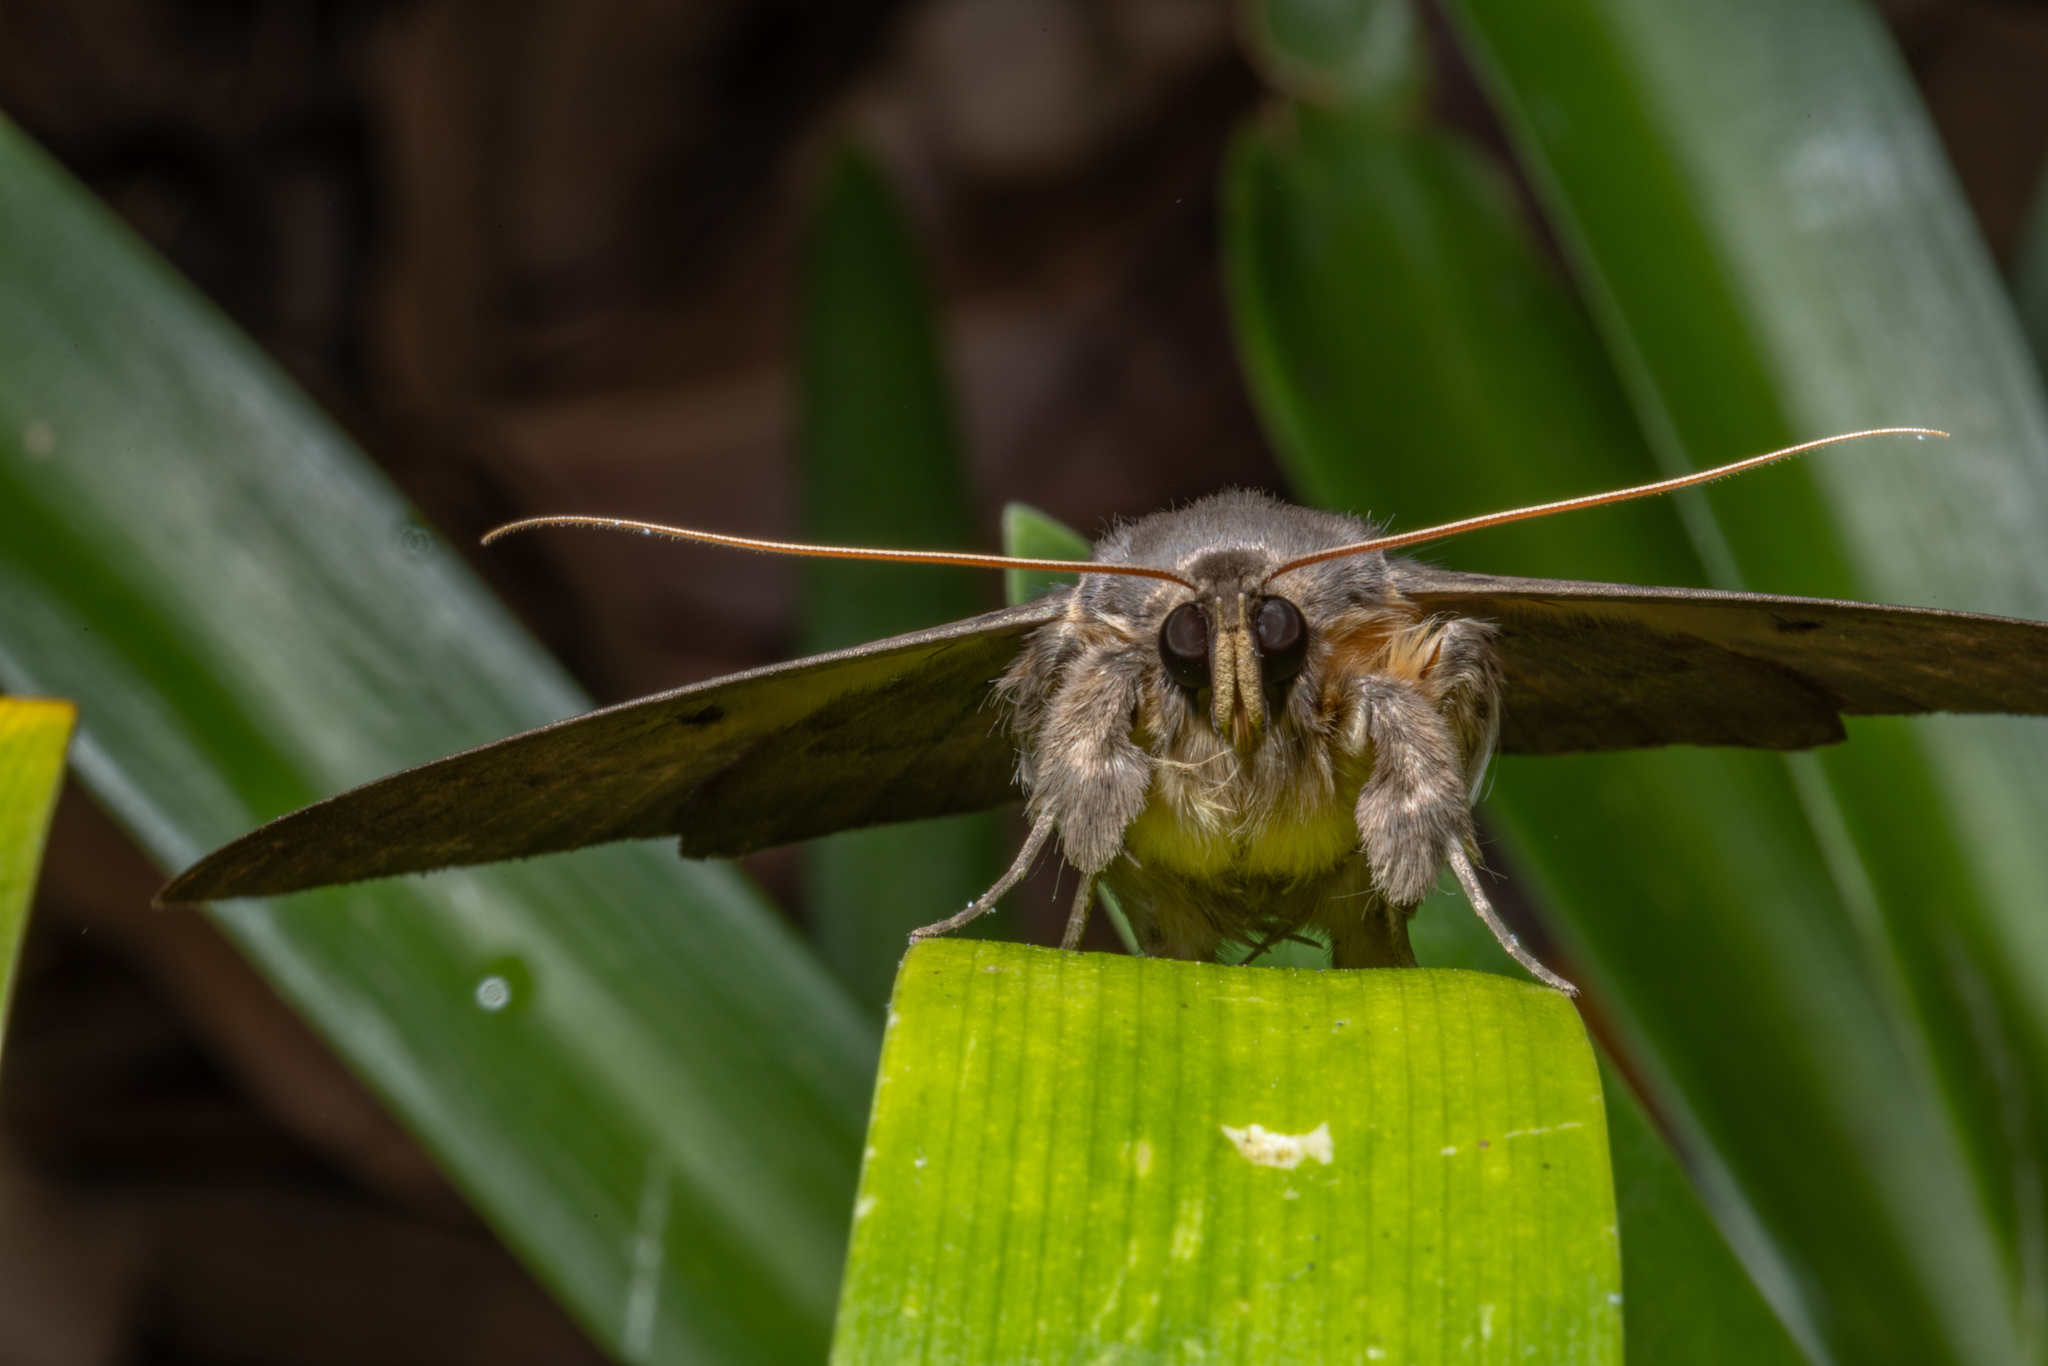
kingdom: Animalia
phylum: Arthropoda
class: Insecta
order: Lepidoptera
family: Erebidae
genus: Dasypodia
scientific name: Dasypodia cymatodes
